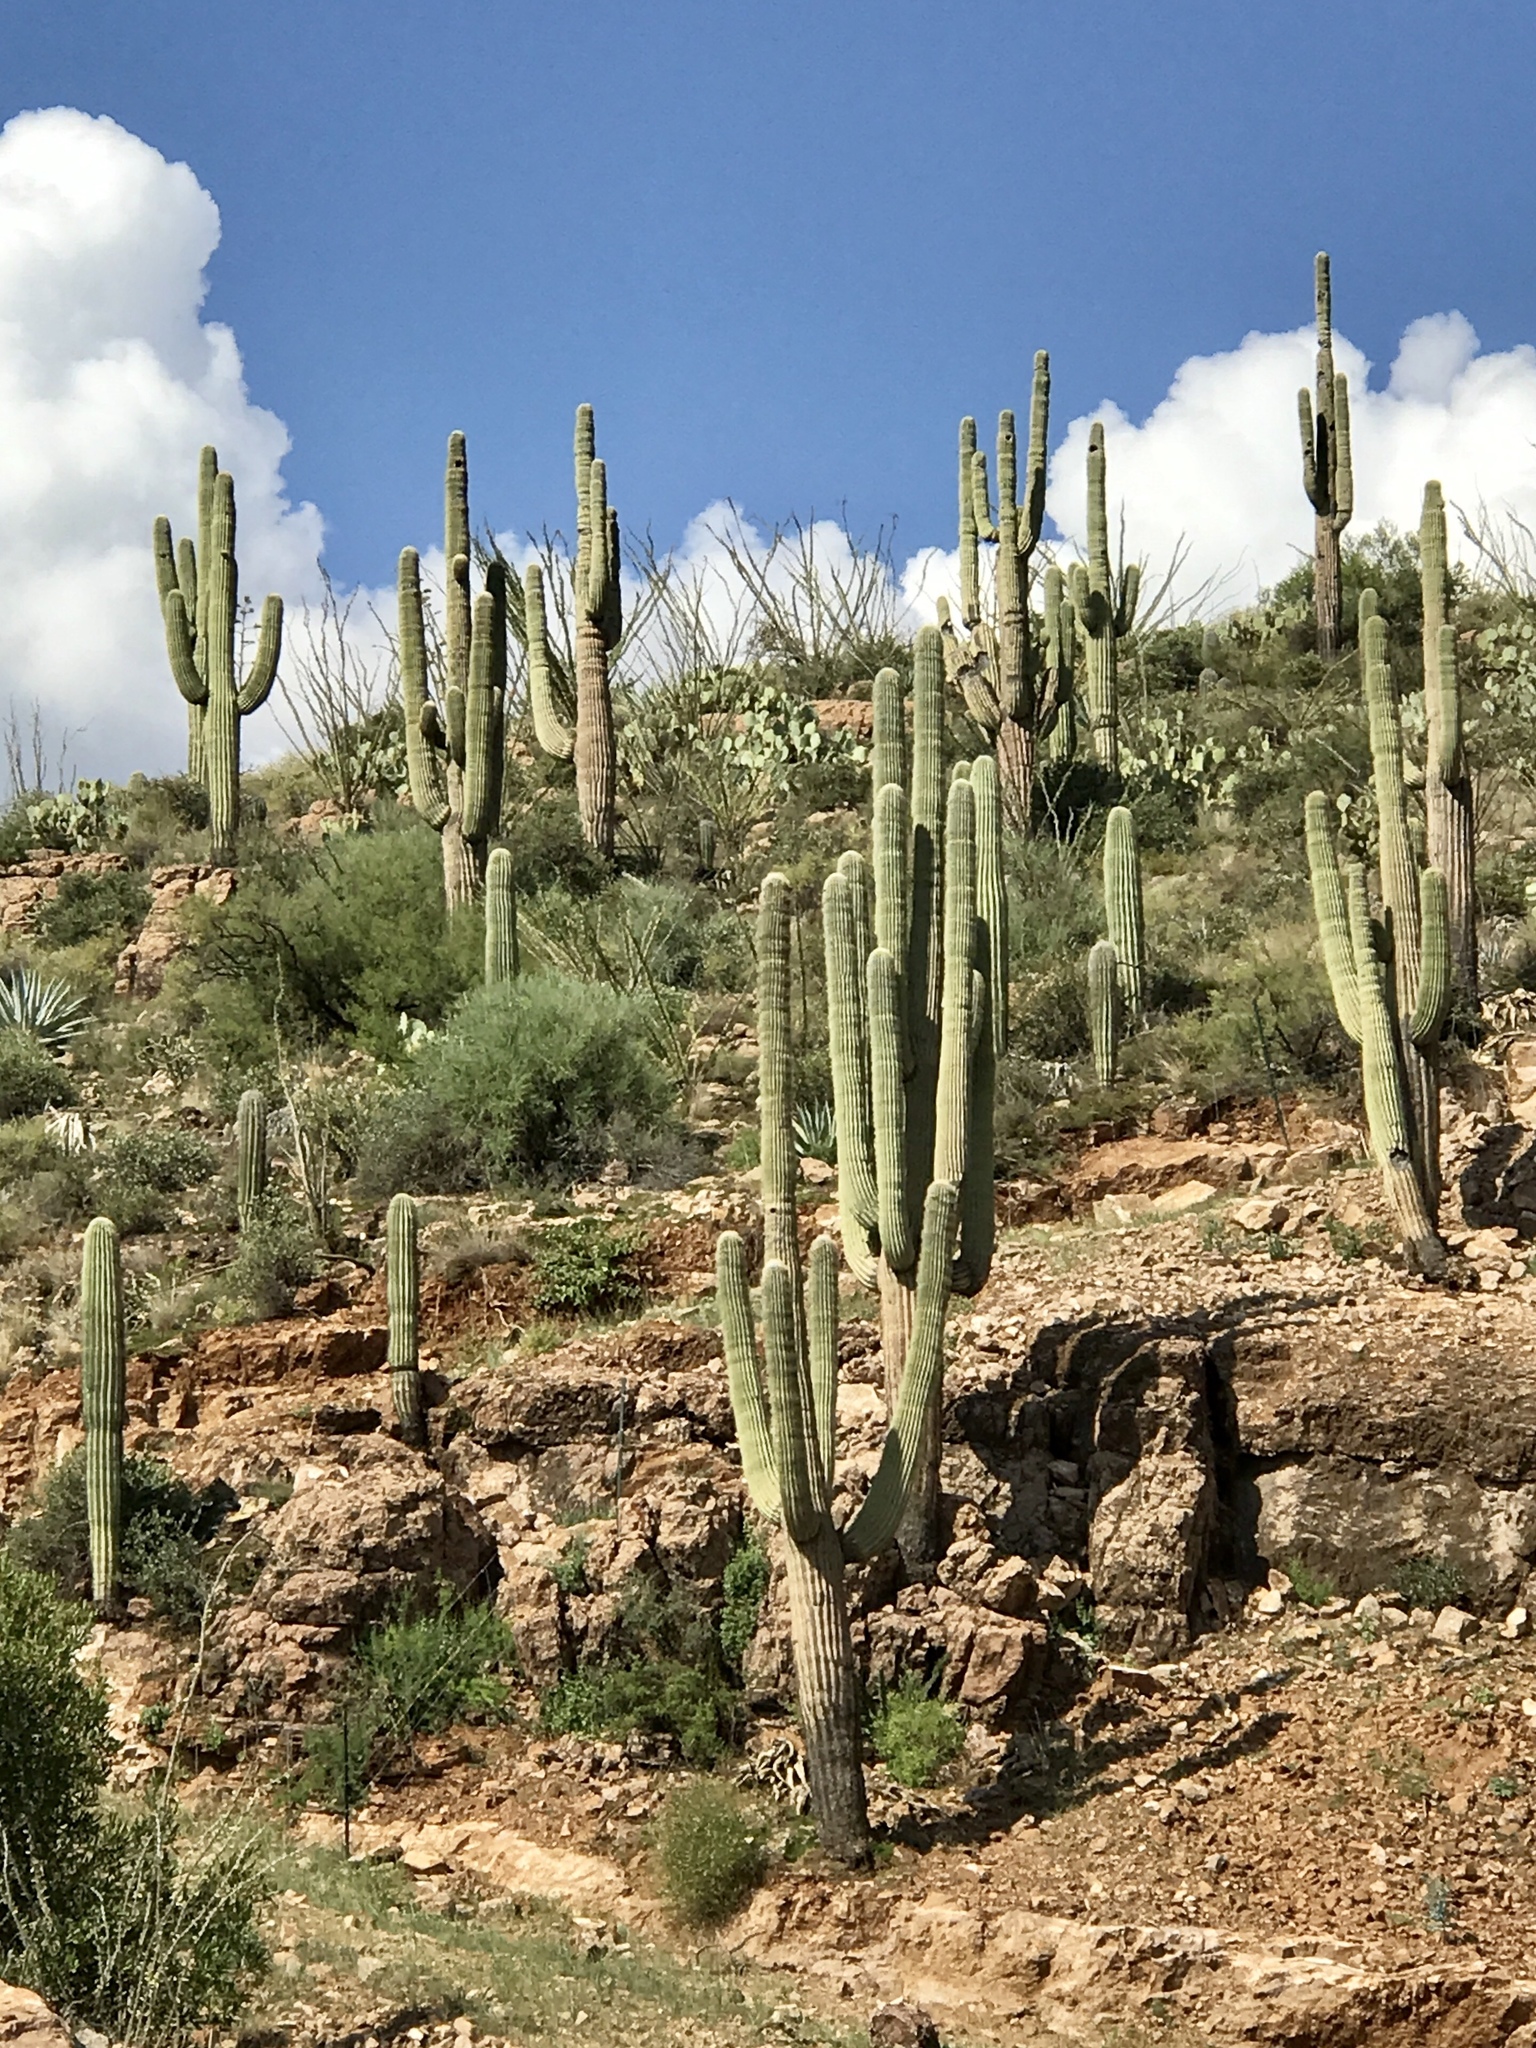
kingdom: Plantae
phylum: Tracheophyta
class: Magnoliopsida
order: Caryophyllales
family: Cactaceae
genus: Carnegiea
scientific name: Carnegiea gigantea
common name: Saguaro
